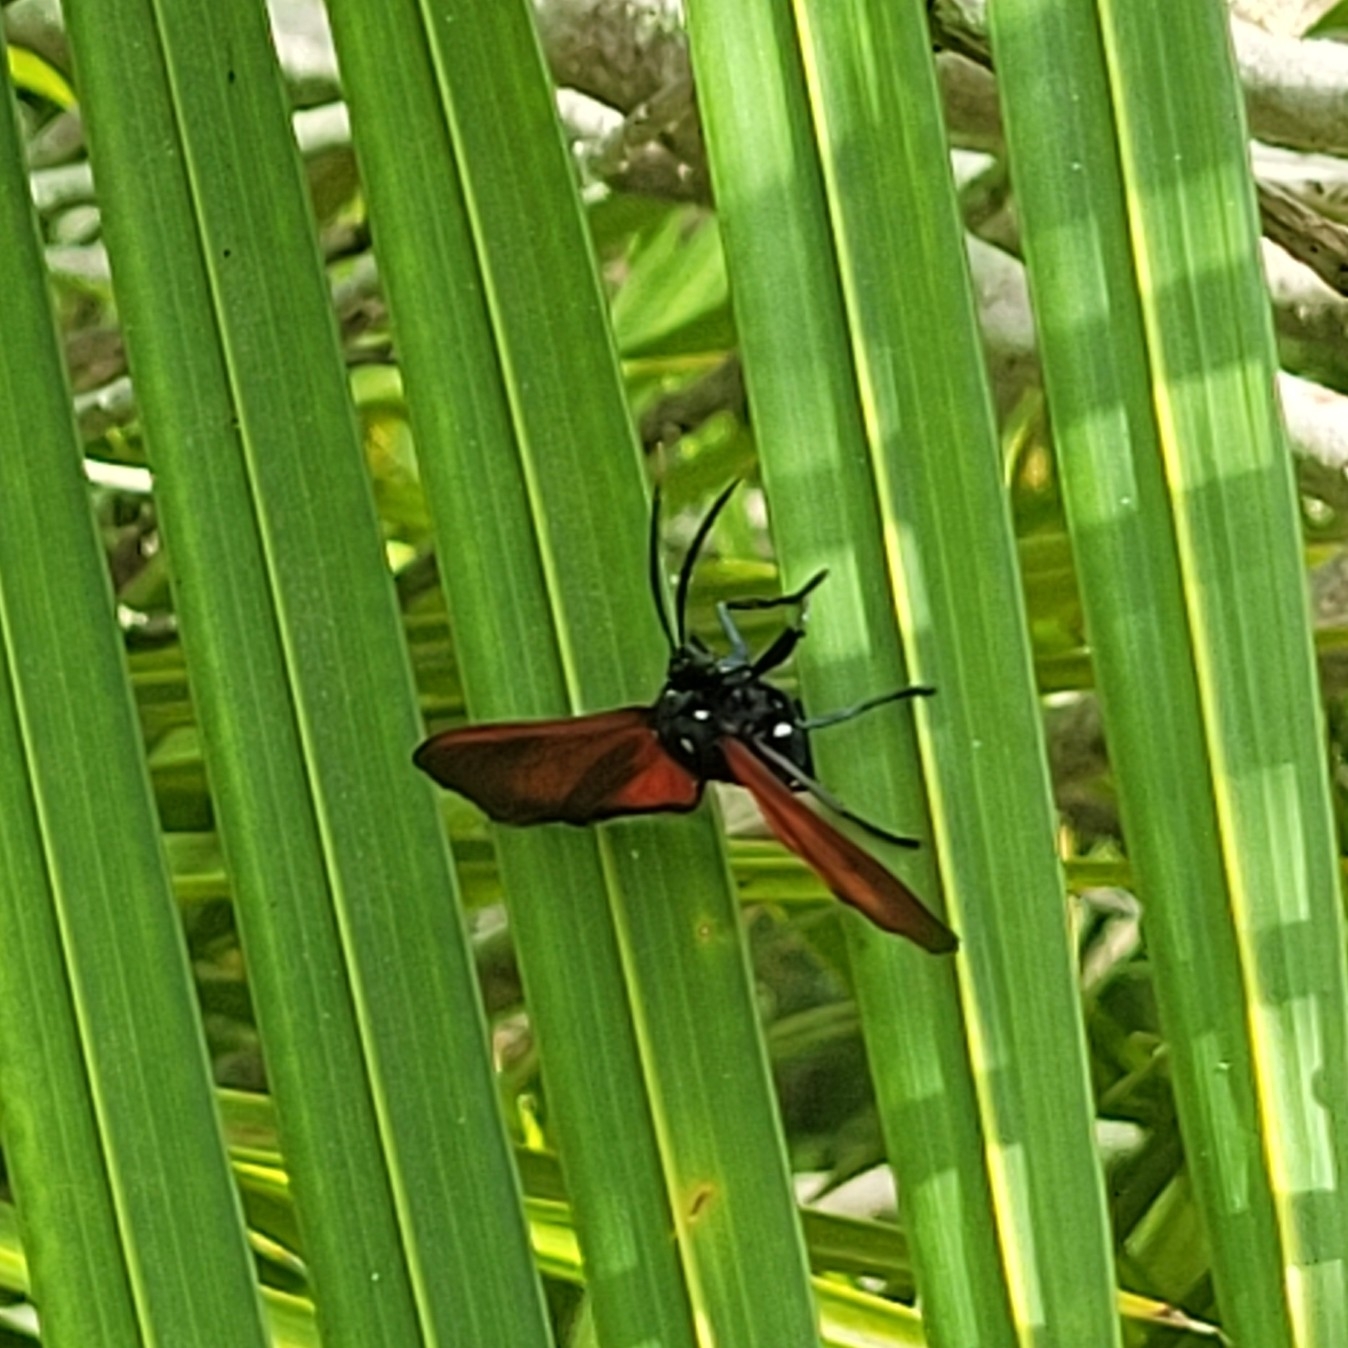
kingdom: Animalia
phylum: Arthropoda
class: Insecta
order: Lepidoptera
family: Erebidae
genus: Empyreuma
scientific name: Empyreuma pugione
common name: Spotted oleander caterpillar moth
